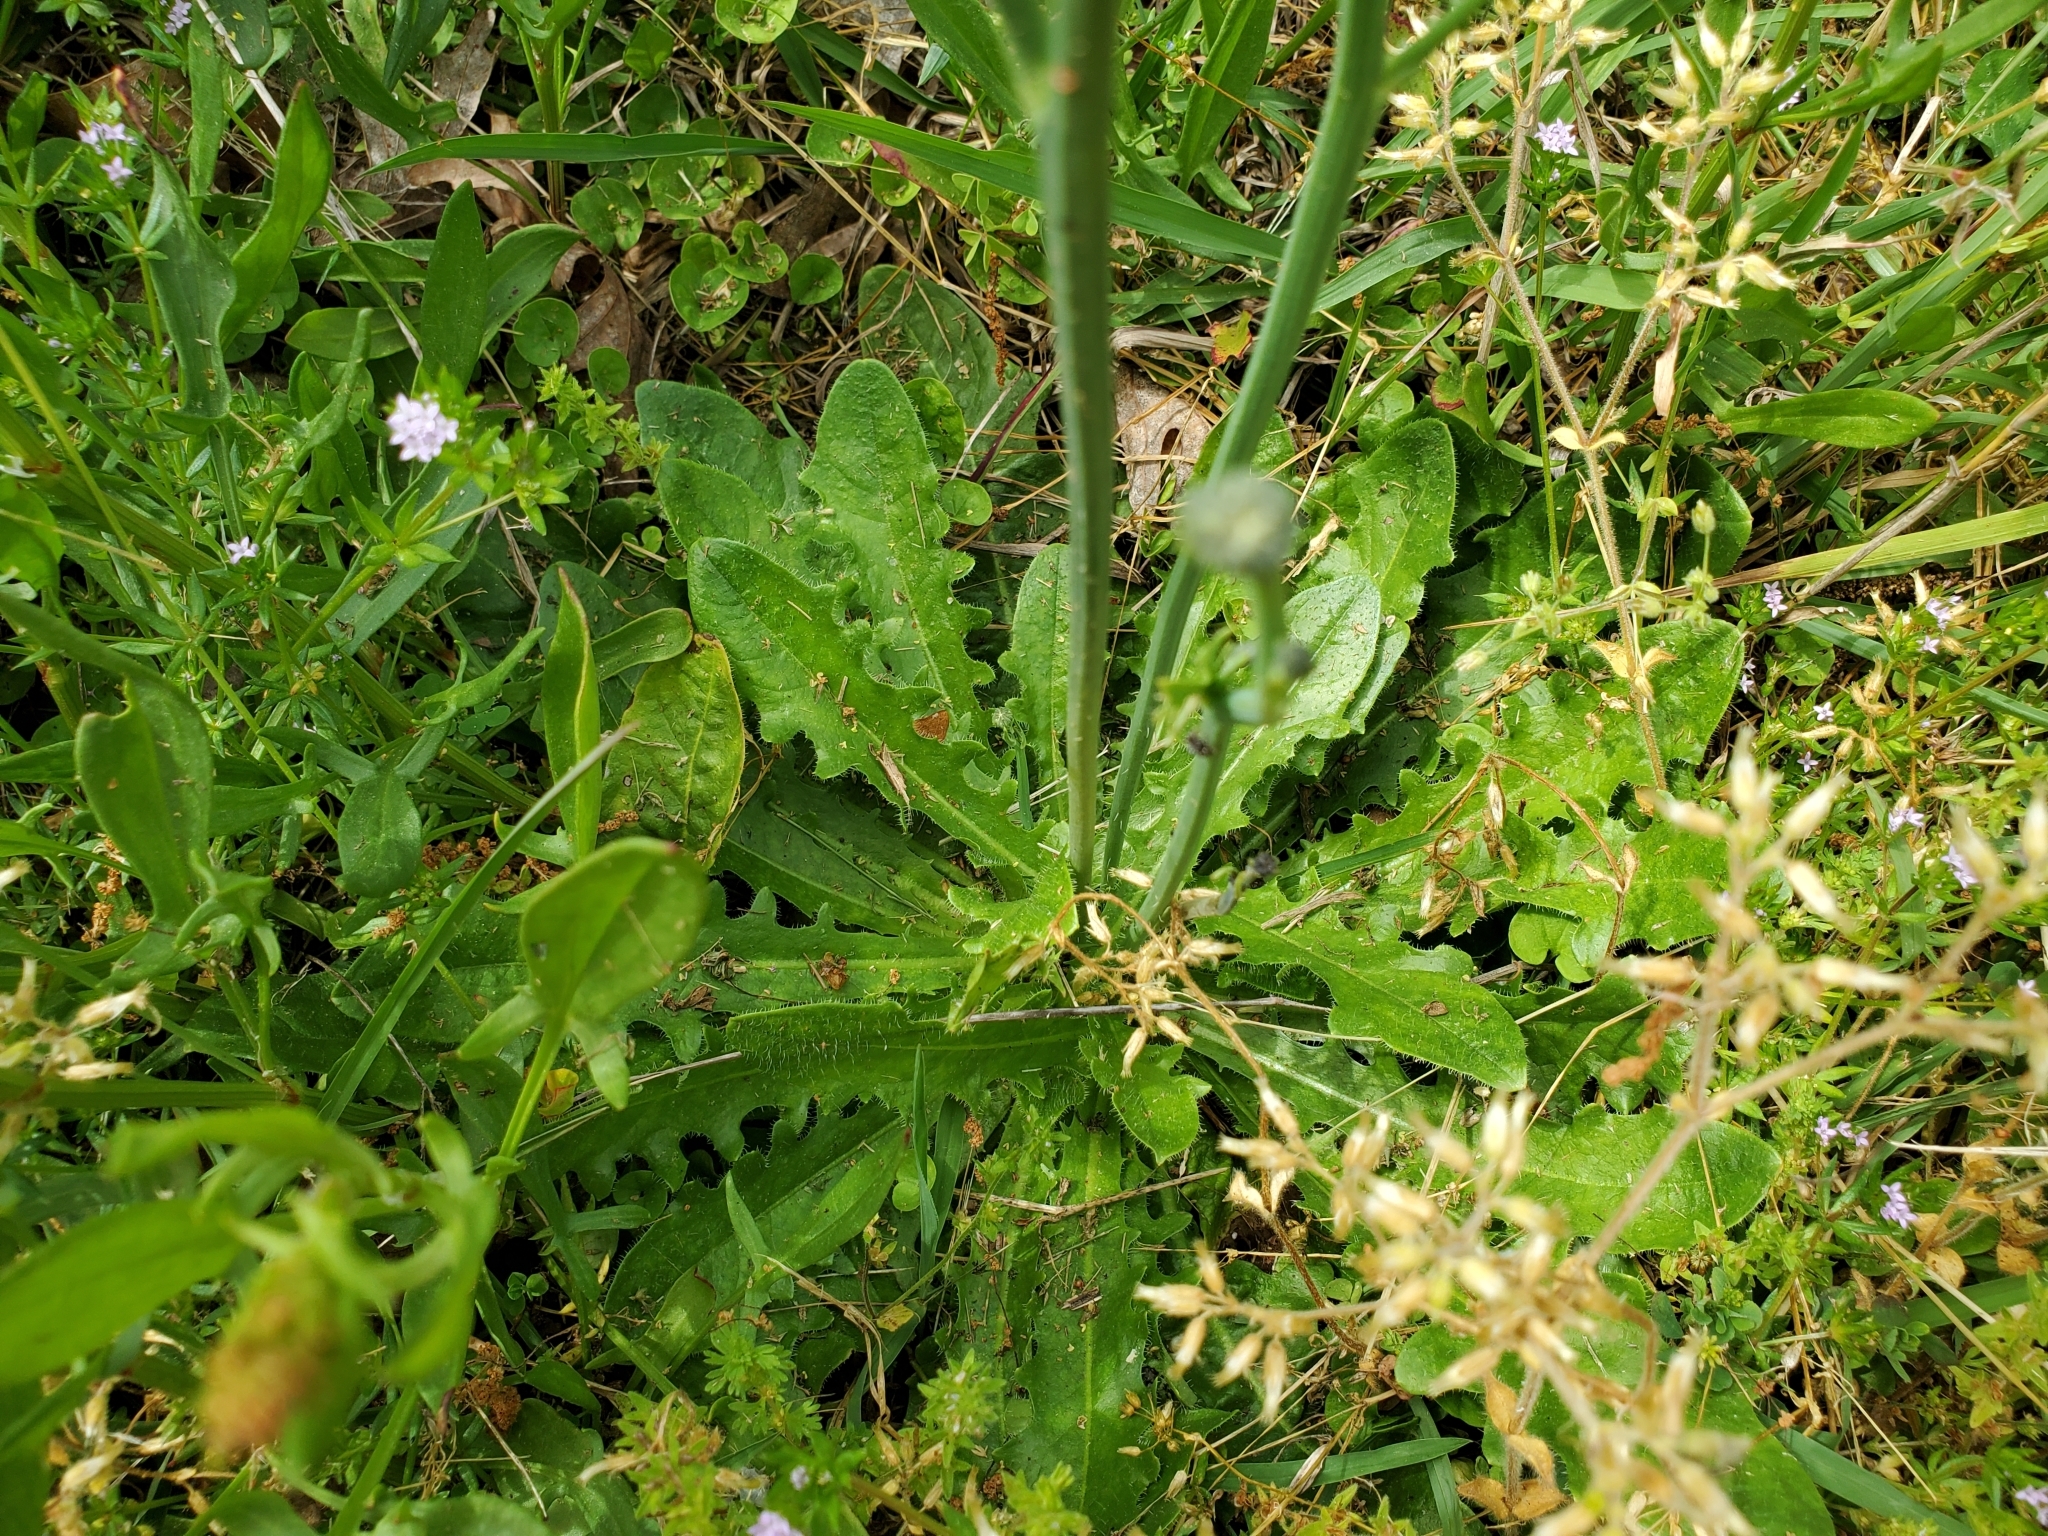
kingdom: Plantae
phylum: Tracheophyta
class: Magnoliopsida
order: Asterales
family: Asteraceae
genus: Hypochaeris
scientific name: Hypochaeris radicata
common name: Flatweed
